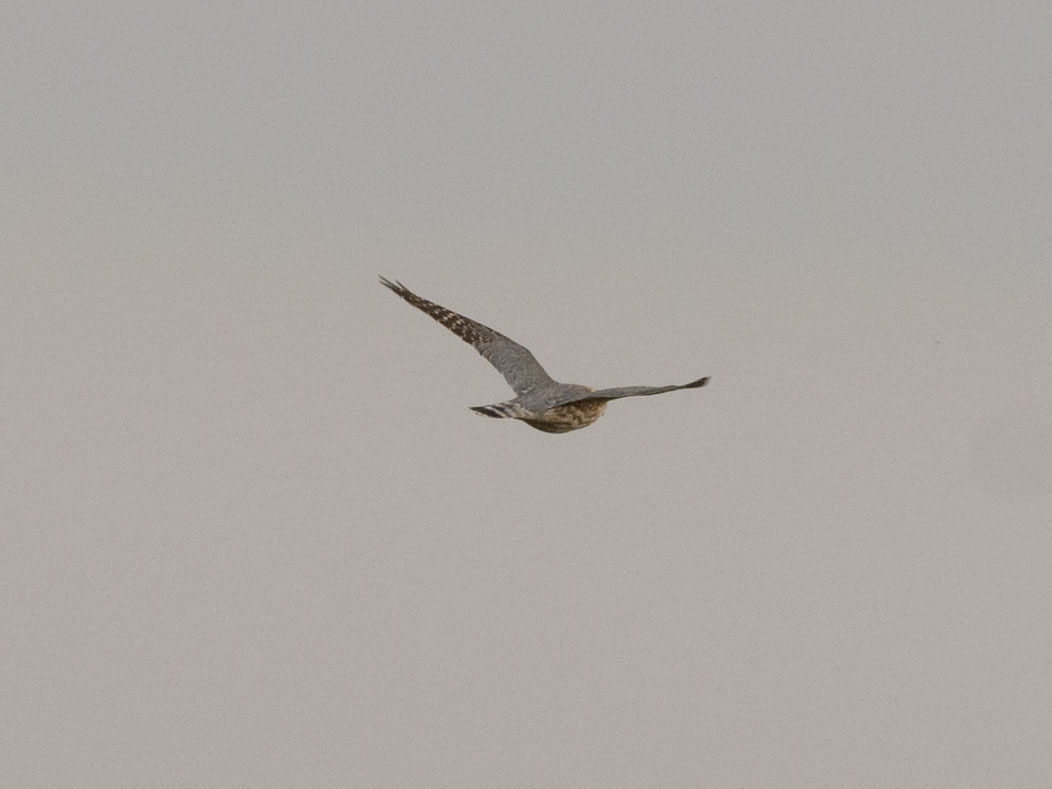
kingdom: Animalia
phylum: Chordata
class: Aves
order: Falconiformes
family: Falconidae
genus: Falco
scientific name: Falco columbarius
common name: Merlin
